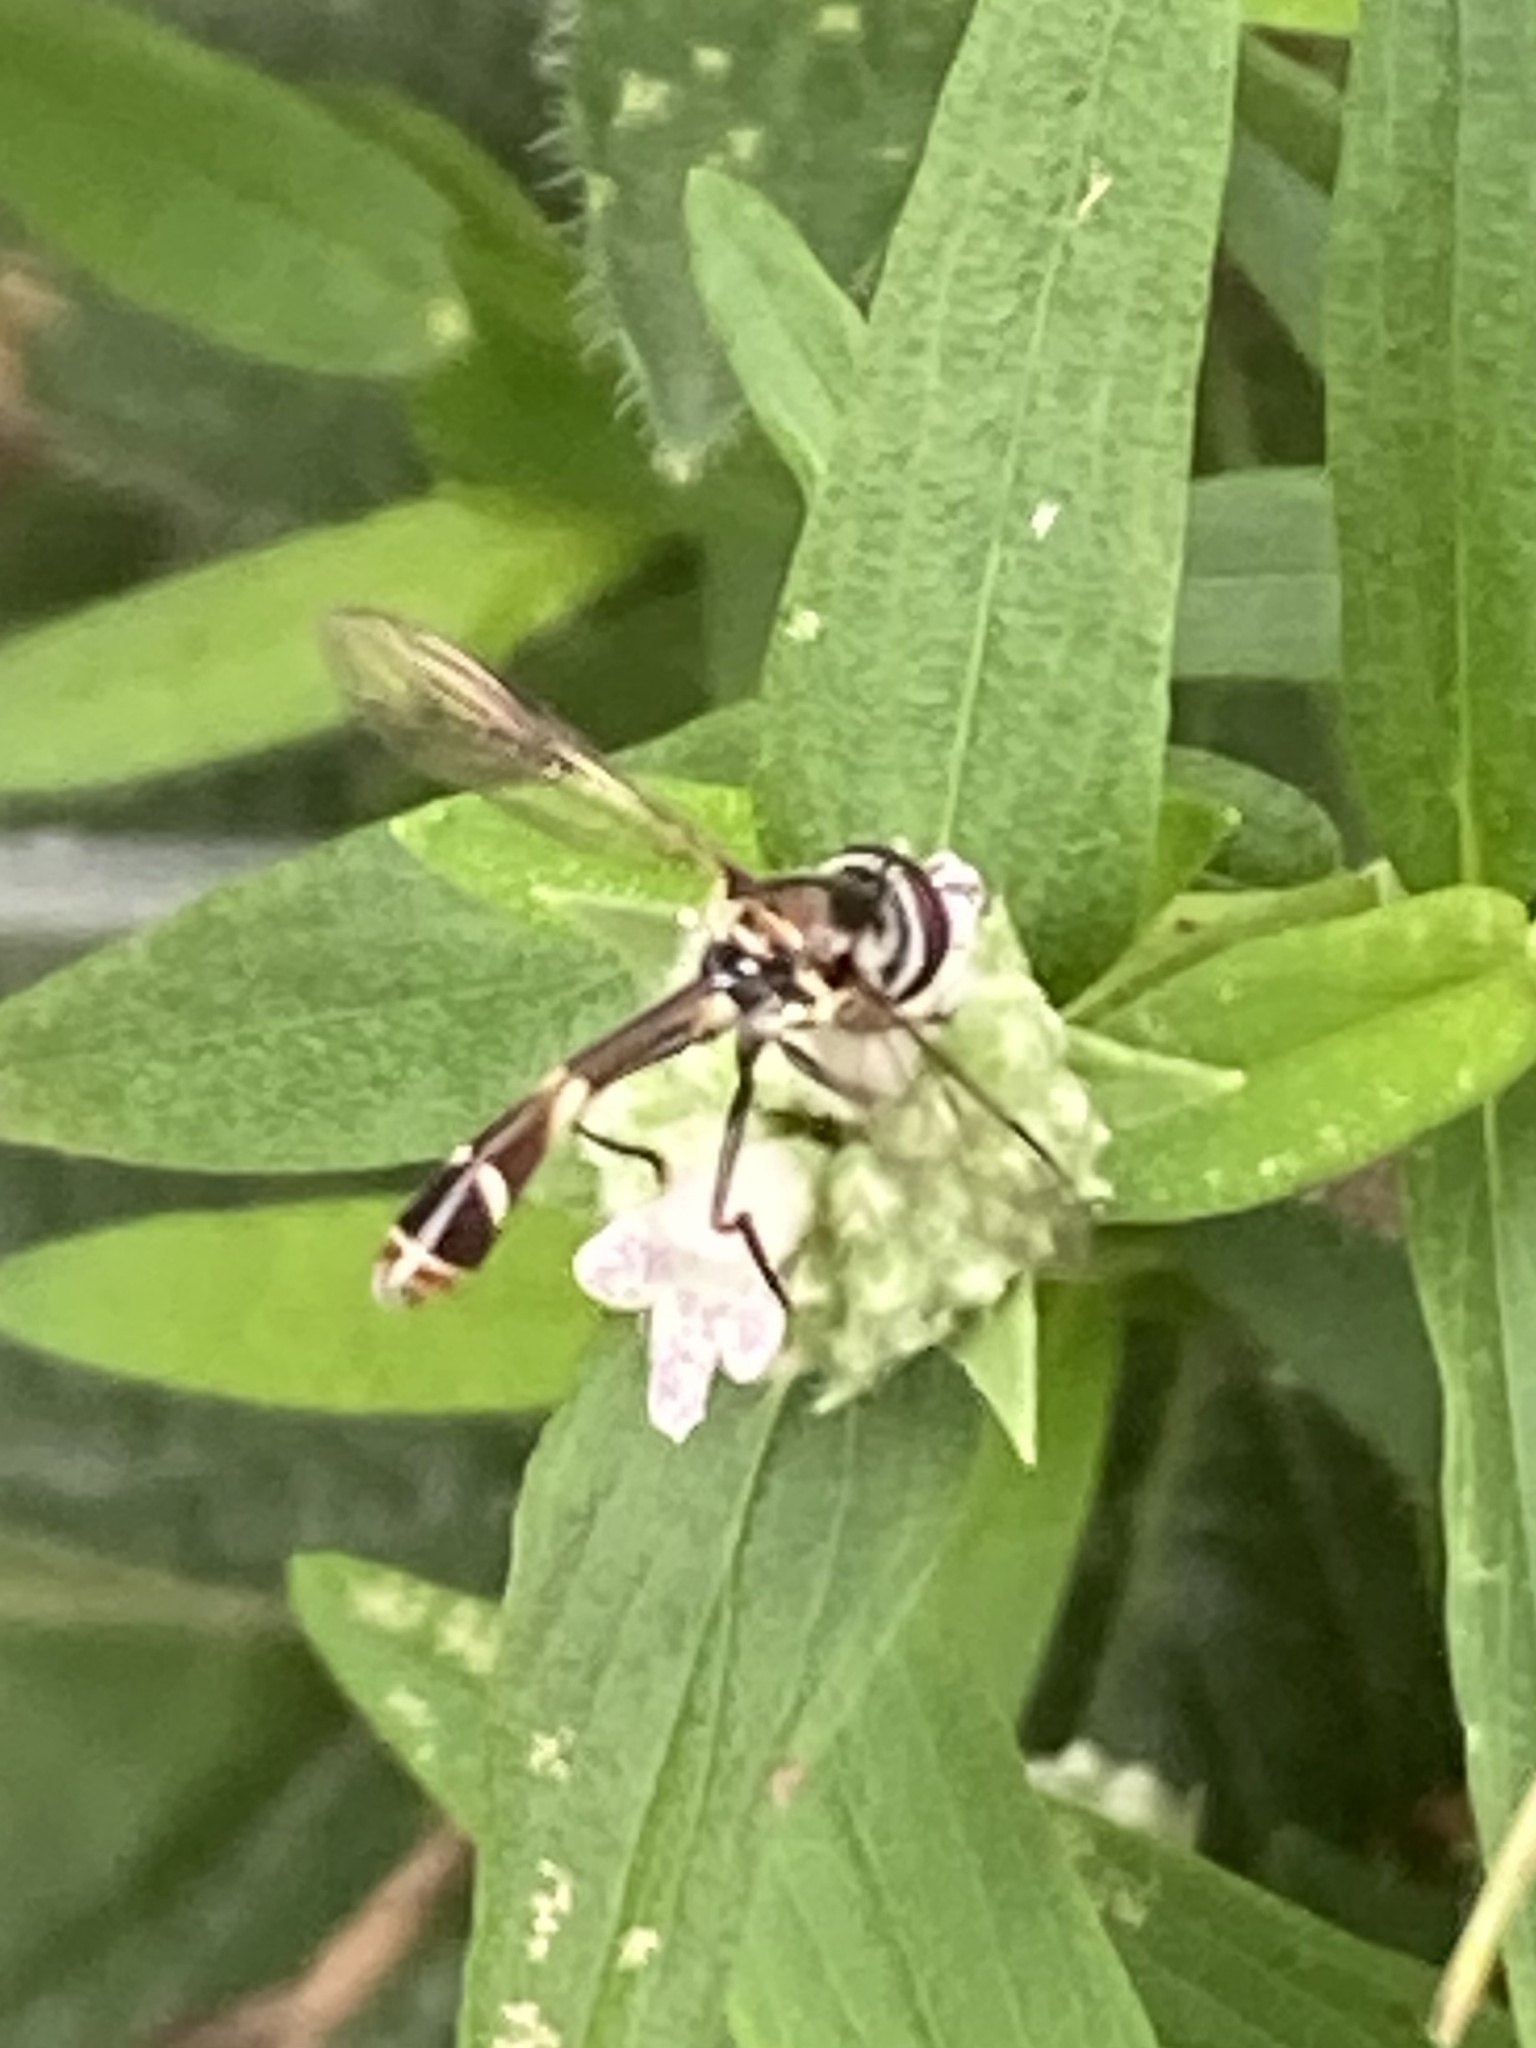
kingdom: Animalia
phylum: Arthropoda
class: Insecta
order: Diptera
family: Syrphidae
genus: Dioprosopa
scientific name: Dioprosopa clavatus
